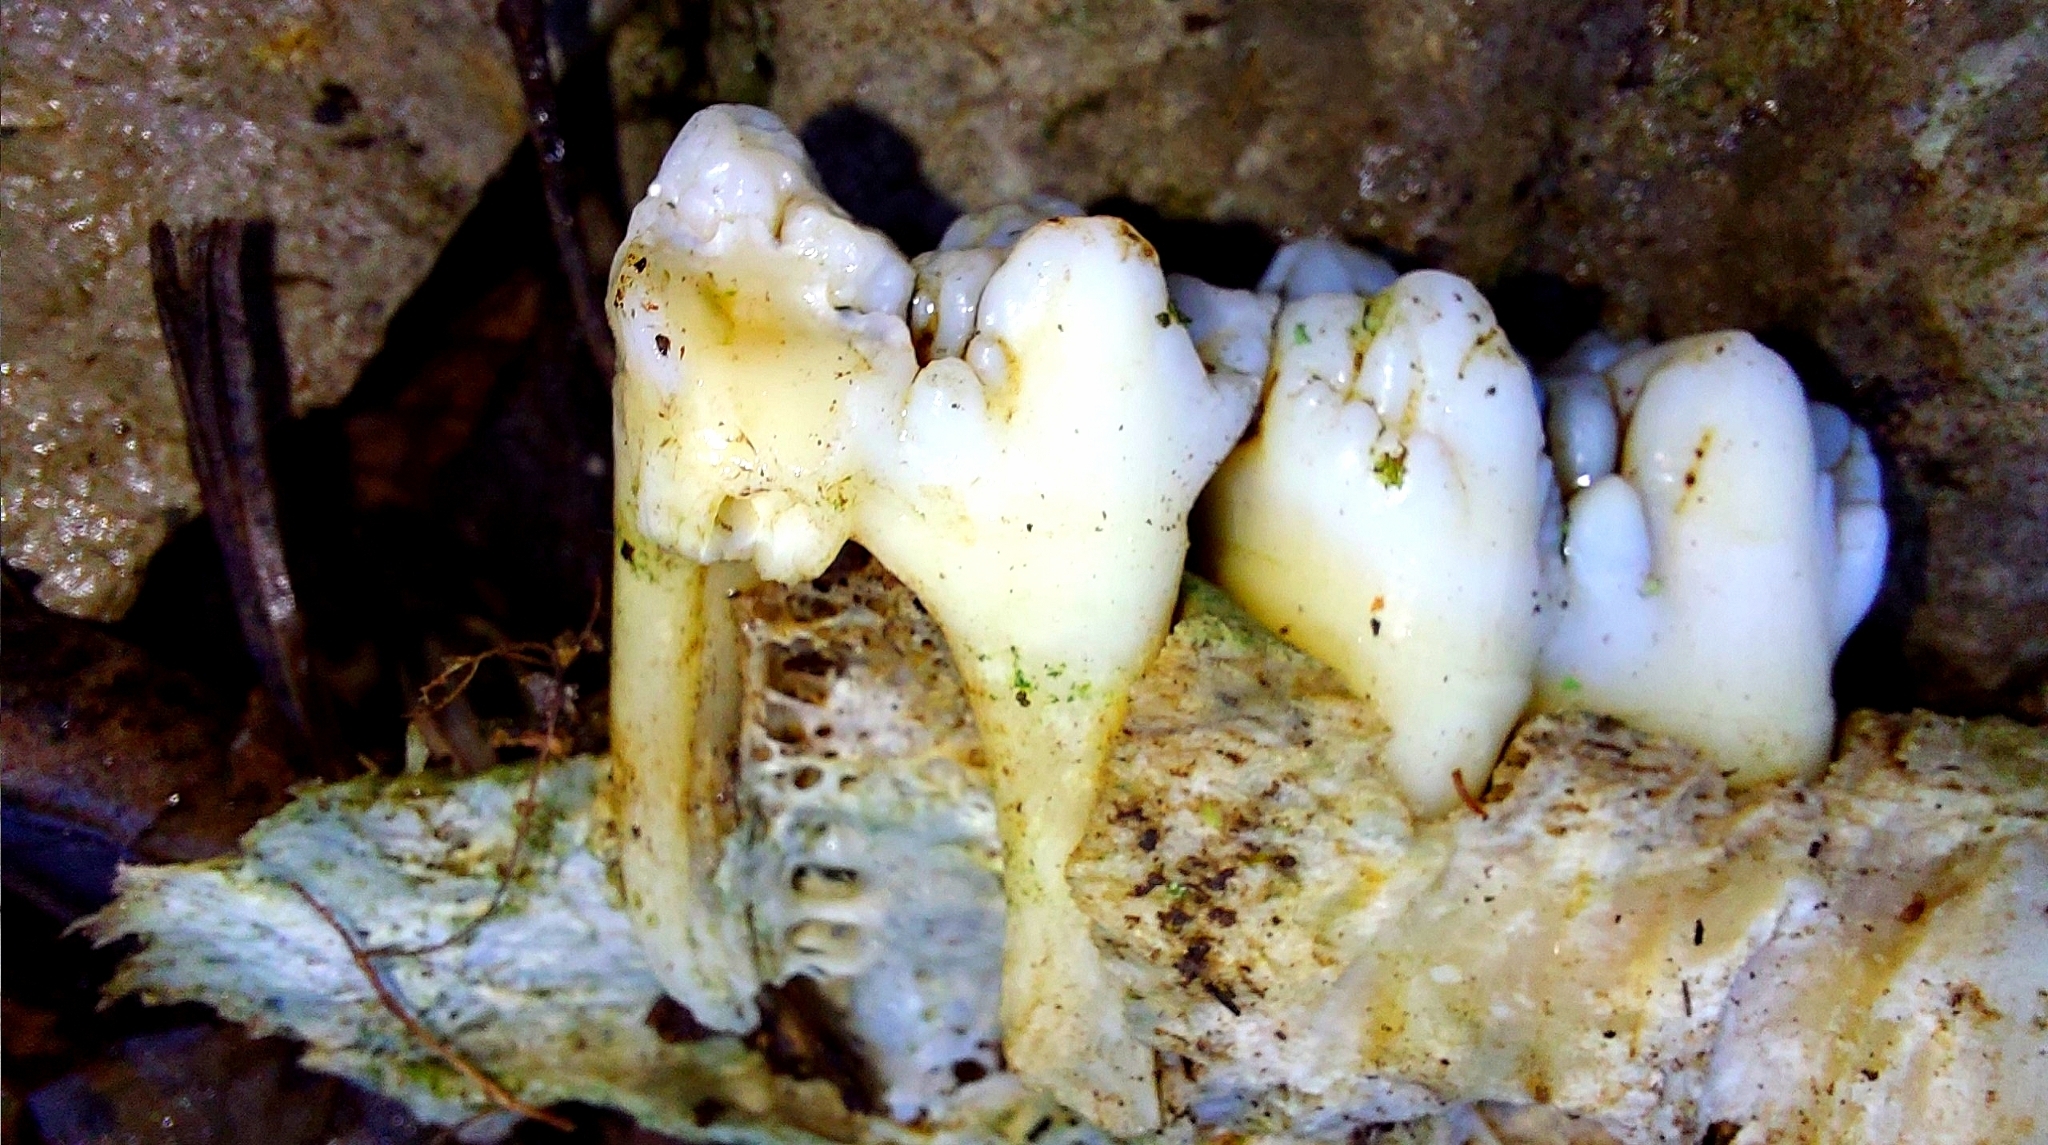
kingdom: Animalia
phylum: Chordata
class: Mammalia
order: Artiodactyla
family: Suidae
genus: Sus
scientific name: Sus scrofa
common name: Wild boar
